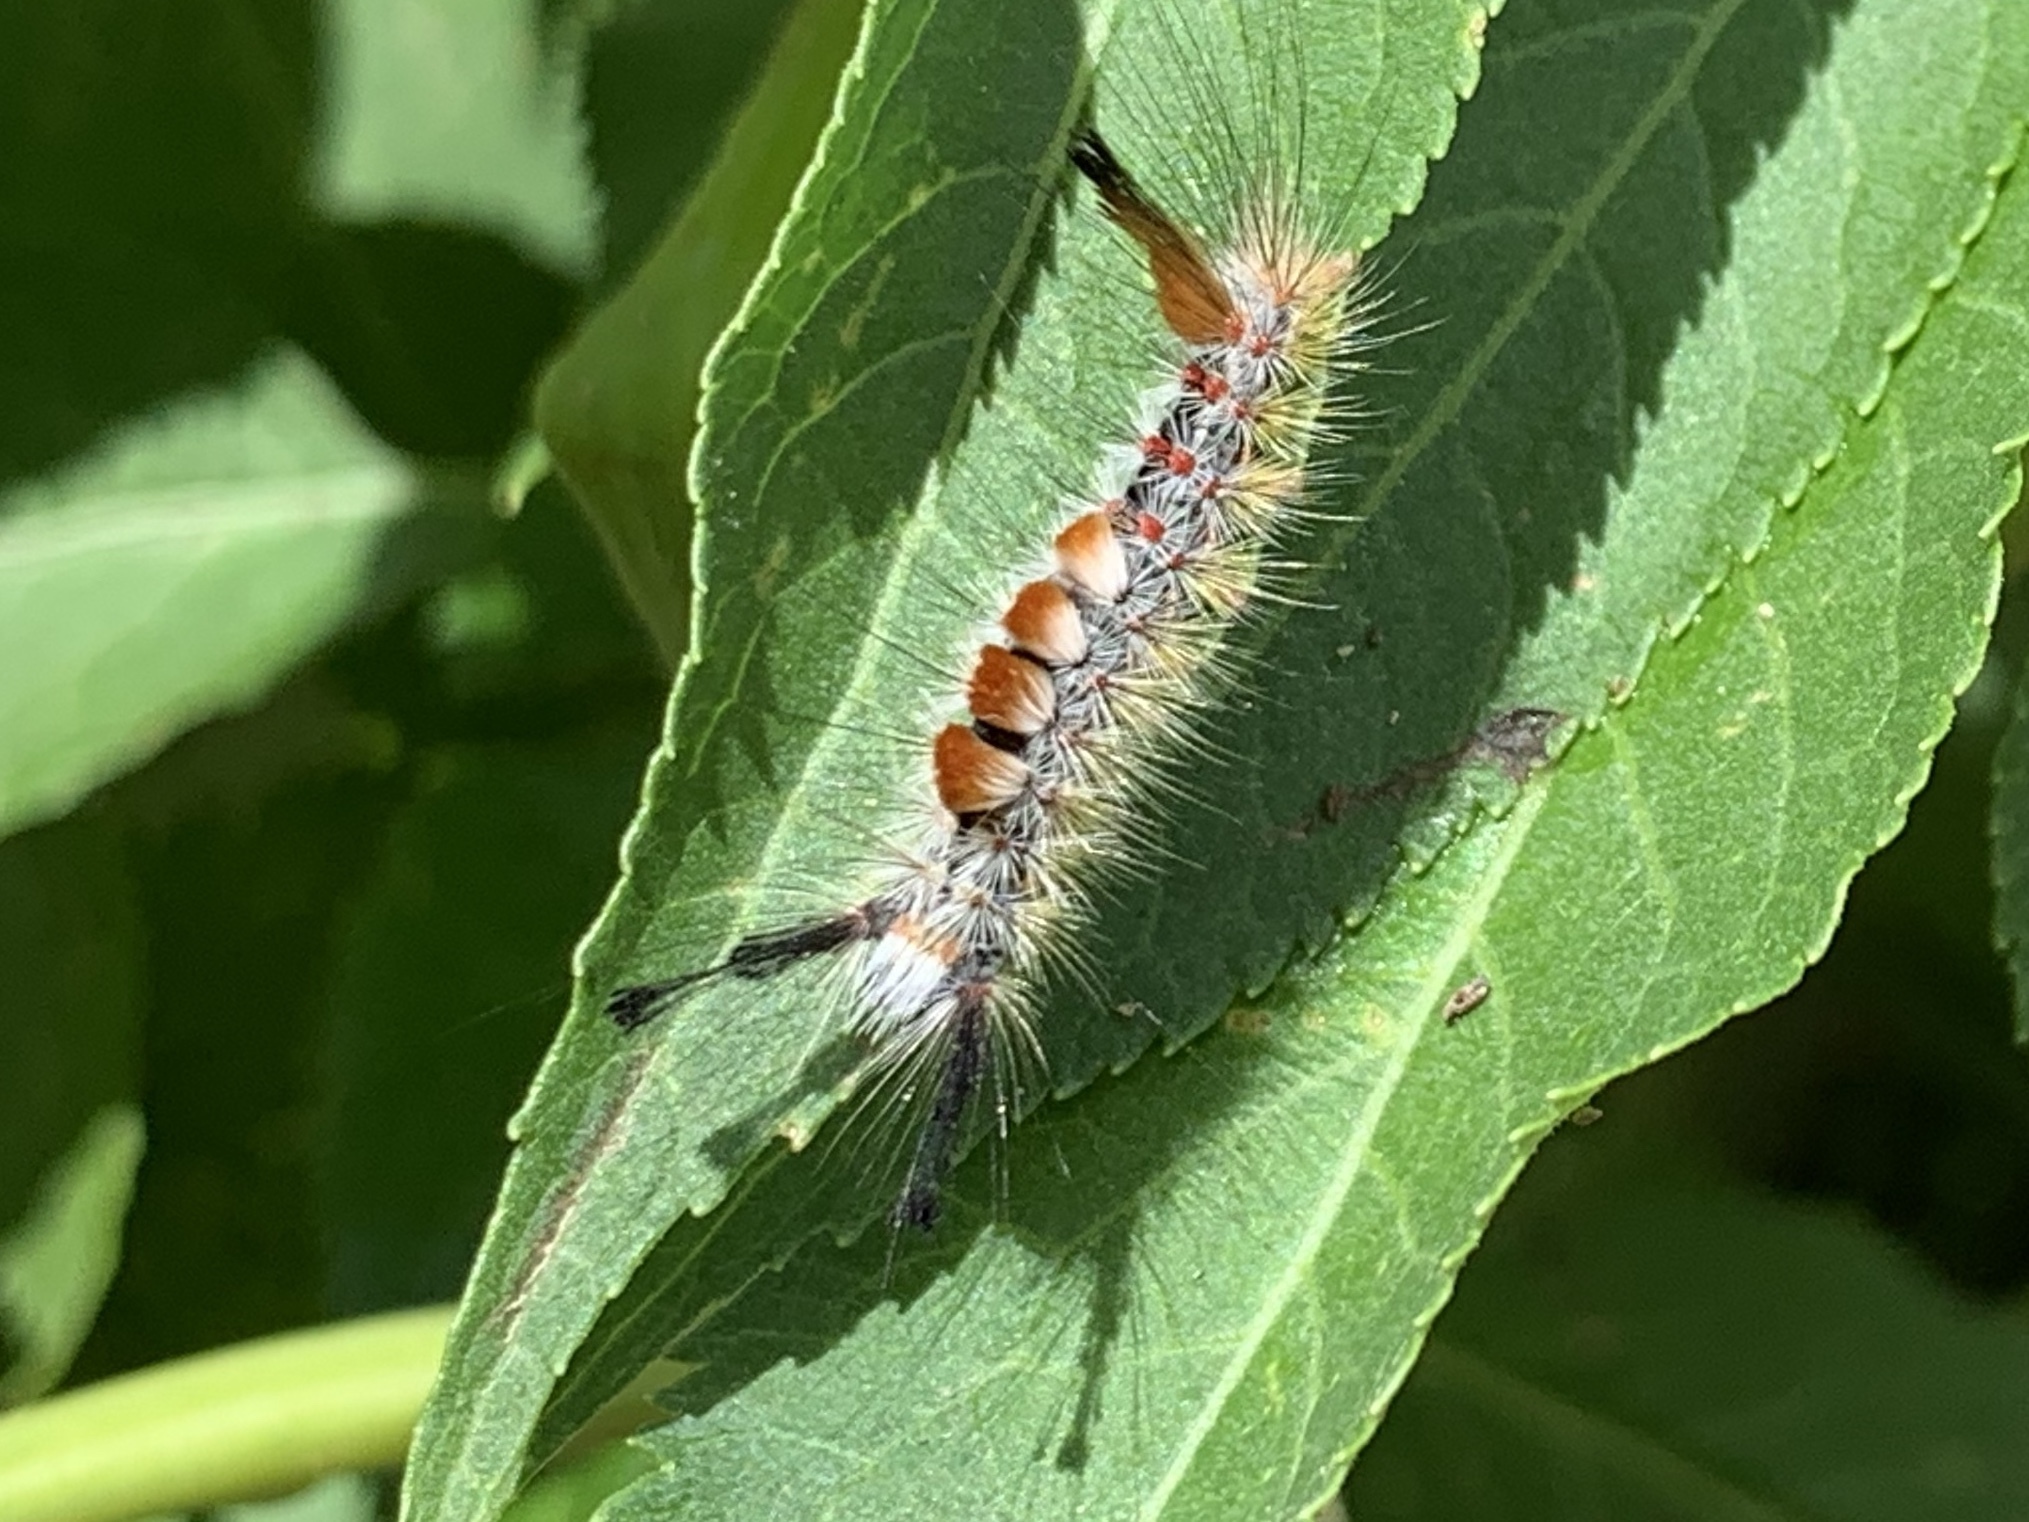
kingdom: Animalia
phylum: Arthropoda
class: Insecta
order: Lepidoptera
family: Erebidae
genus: Orgyia
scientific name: Orgyia pseudotsugata
